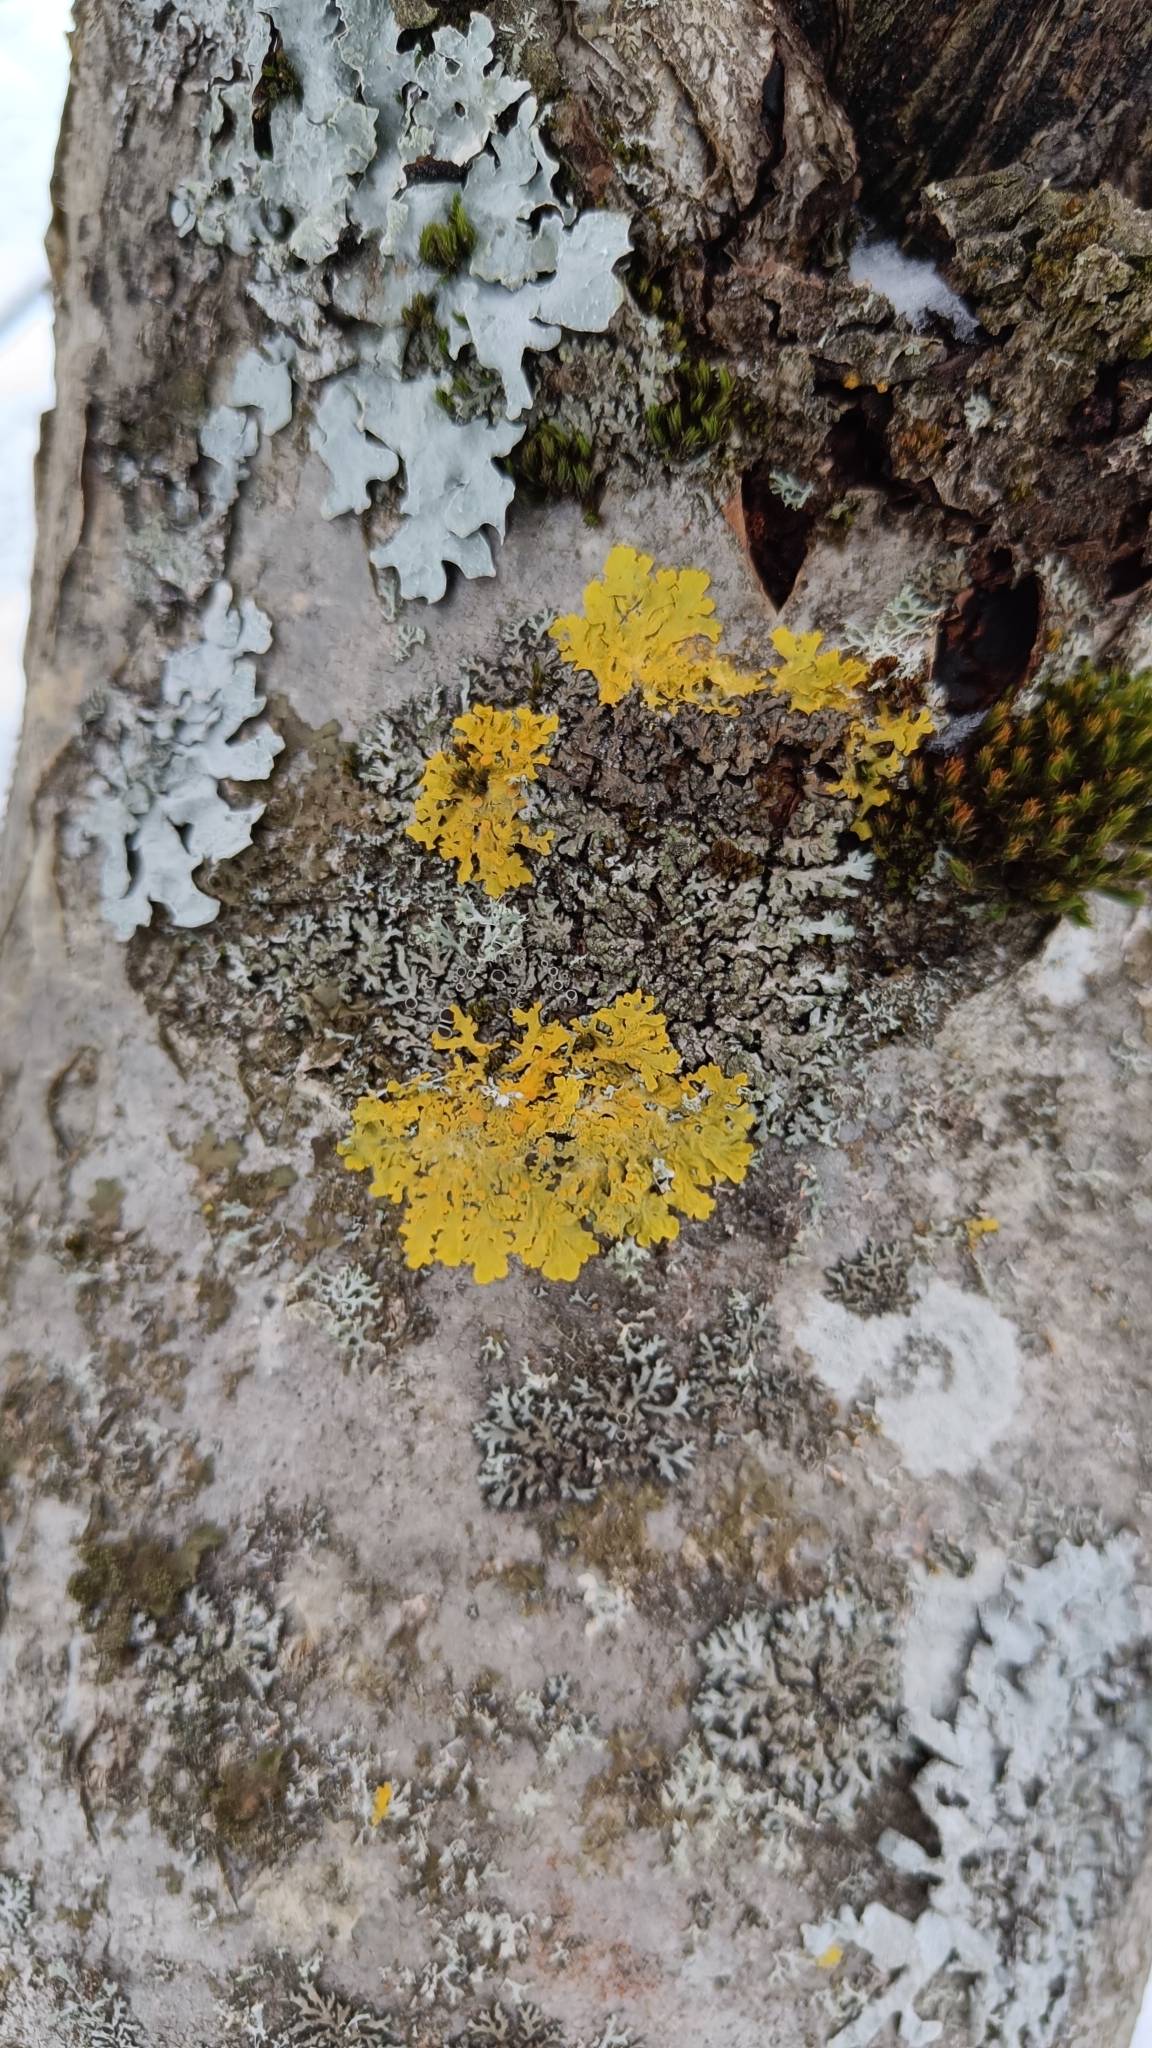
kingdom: Fungi
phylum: Ascomycota
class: Lecanoromycetes
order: Teloschistales
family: Teloschistaceae
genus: Xanthoria
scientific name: Xanthoria parietina
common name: Common orange lichen
